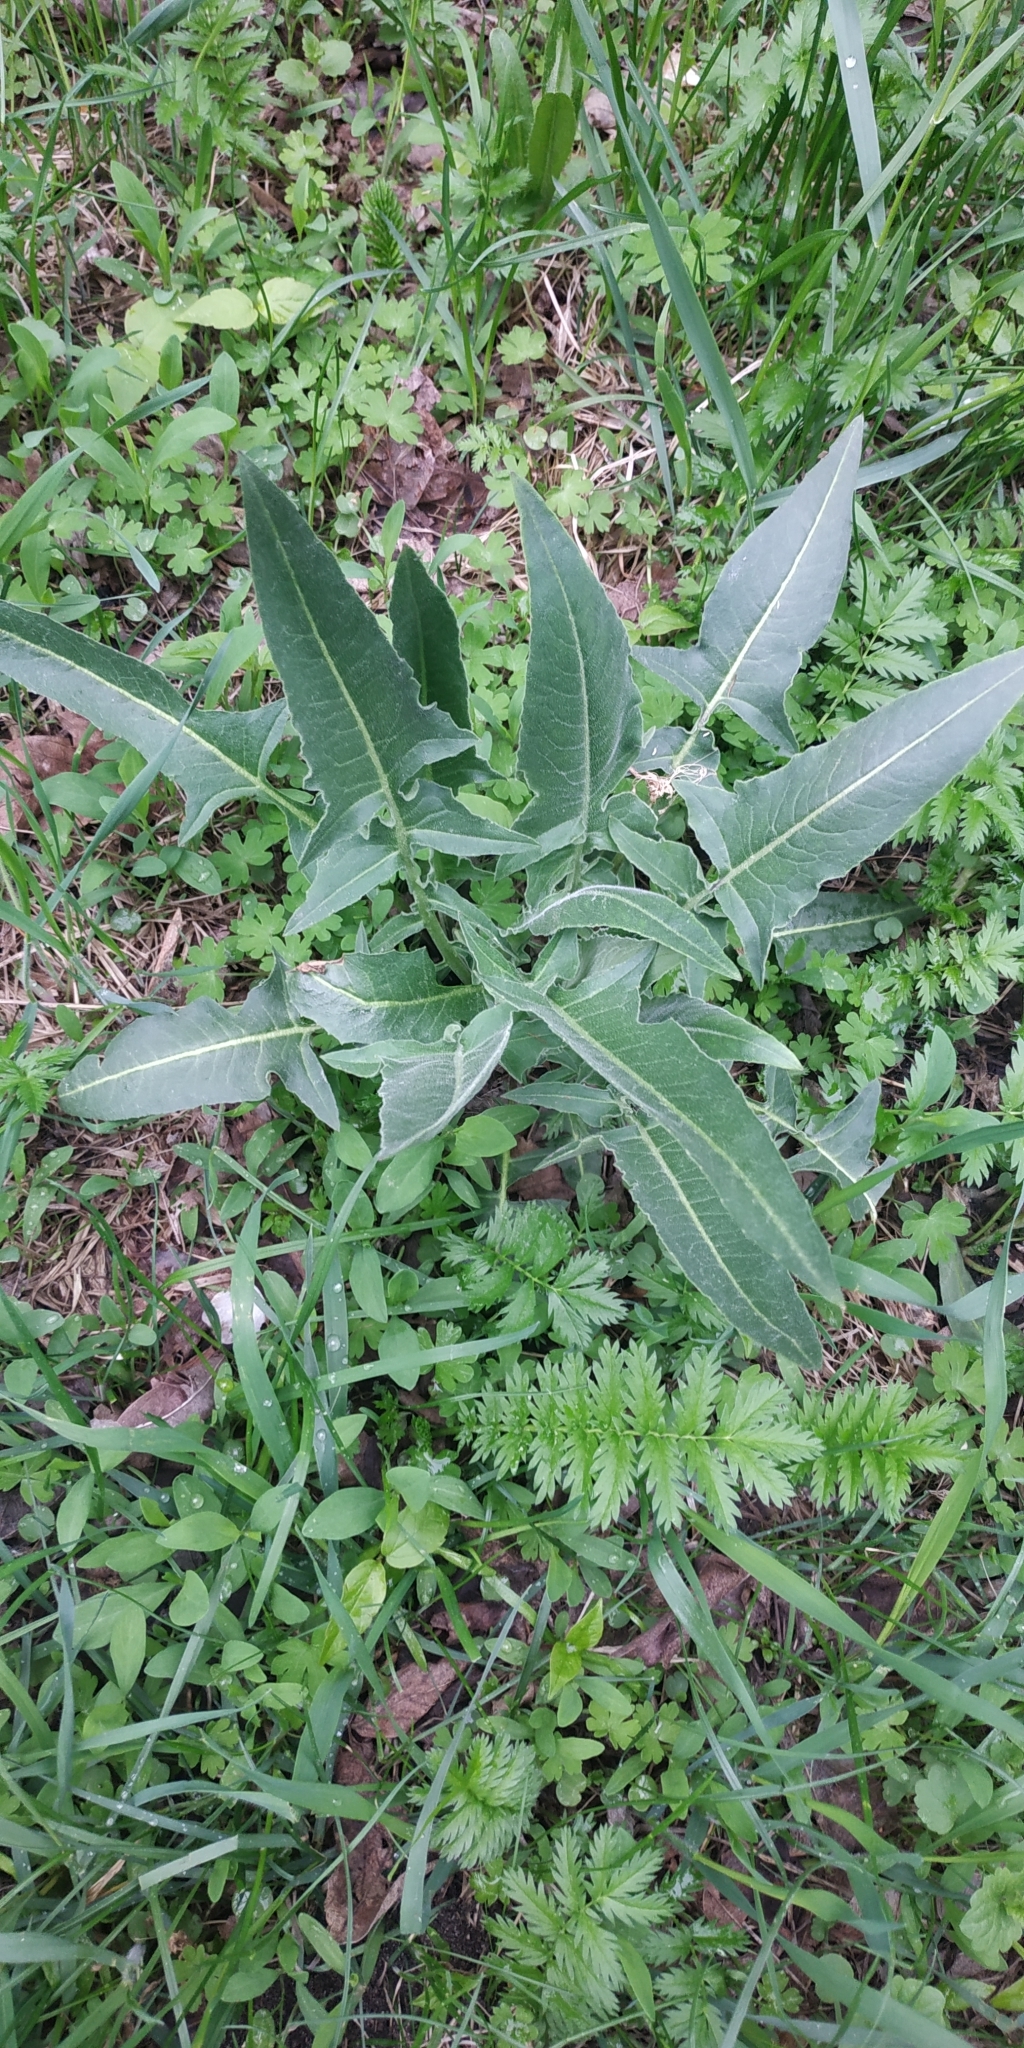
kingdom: Plantae
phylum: Tracheophyta
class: Magnoliopsida
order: Brassicales
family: Brassicaceae
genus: Bunias
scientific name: Bunias orientalis
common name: Warty-cabbage
